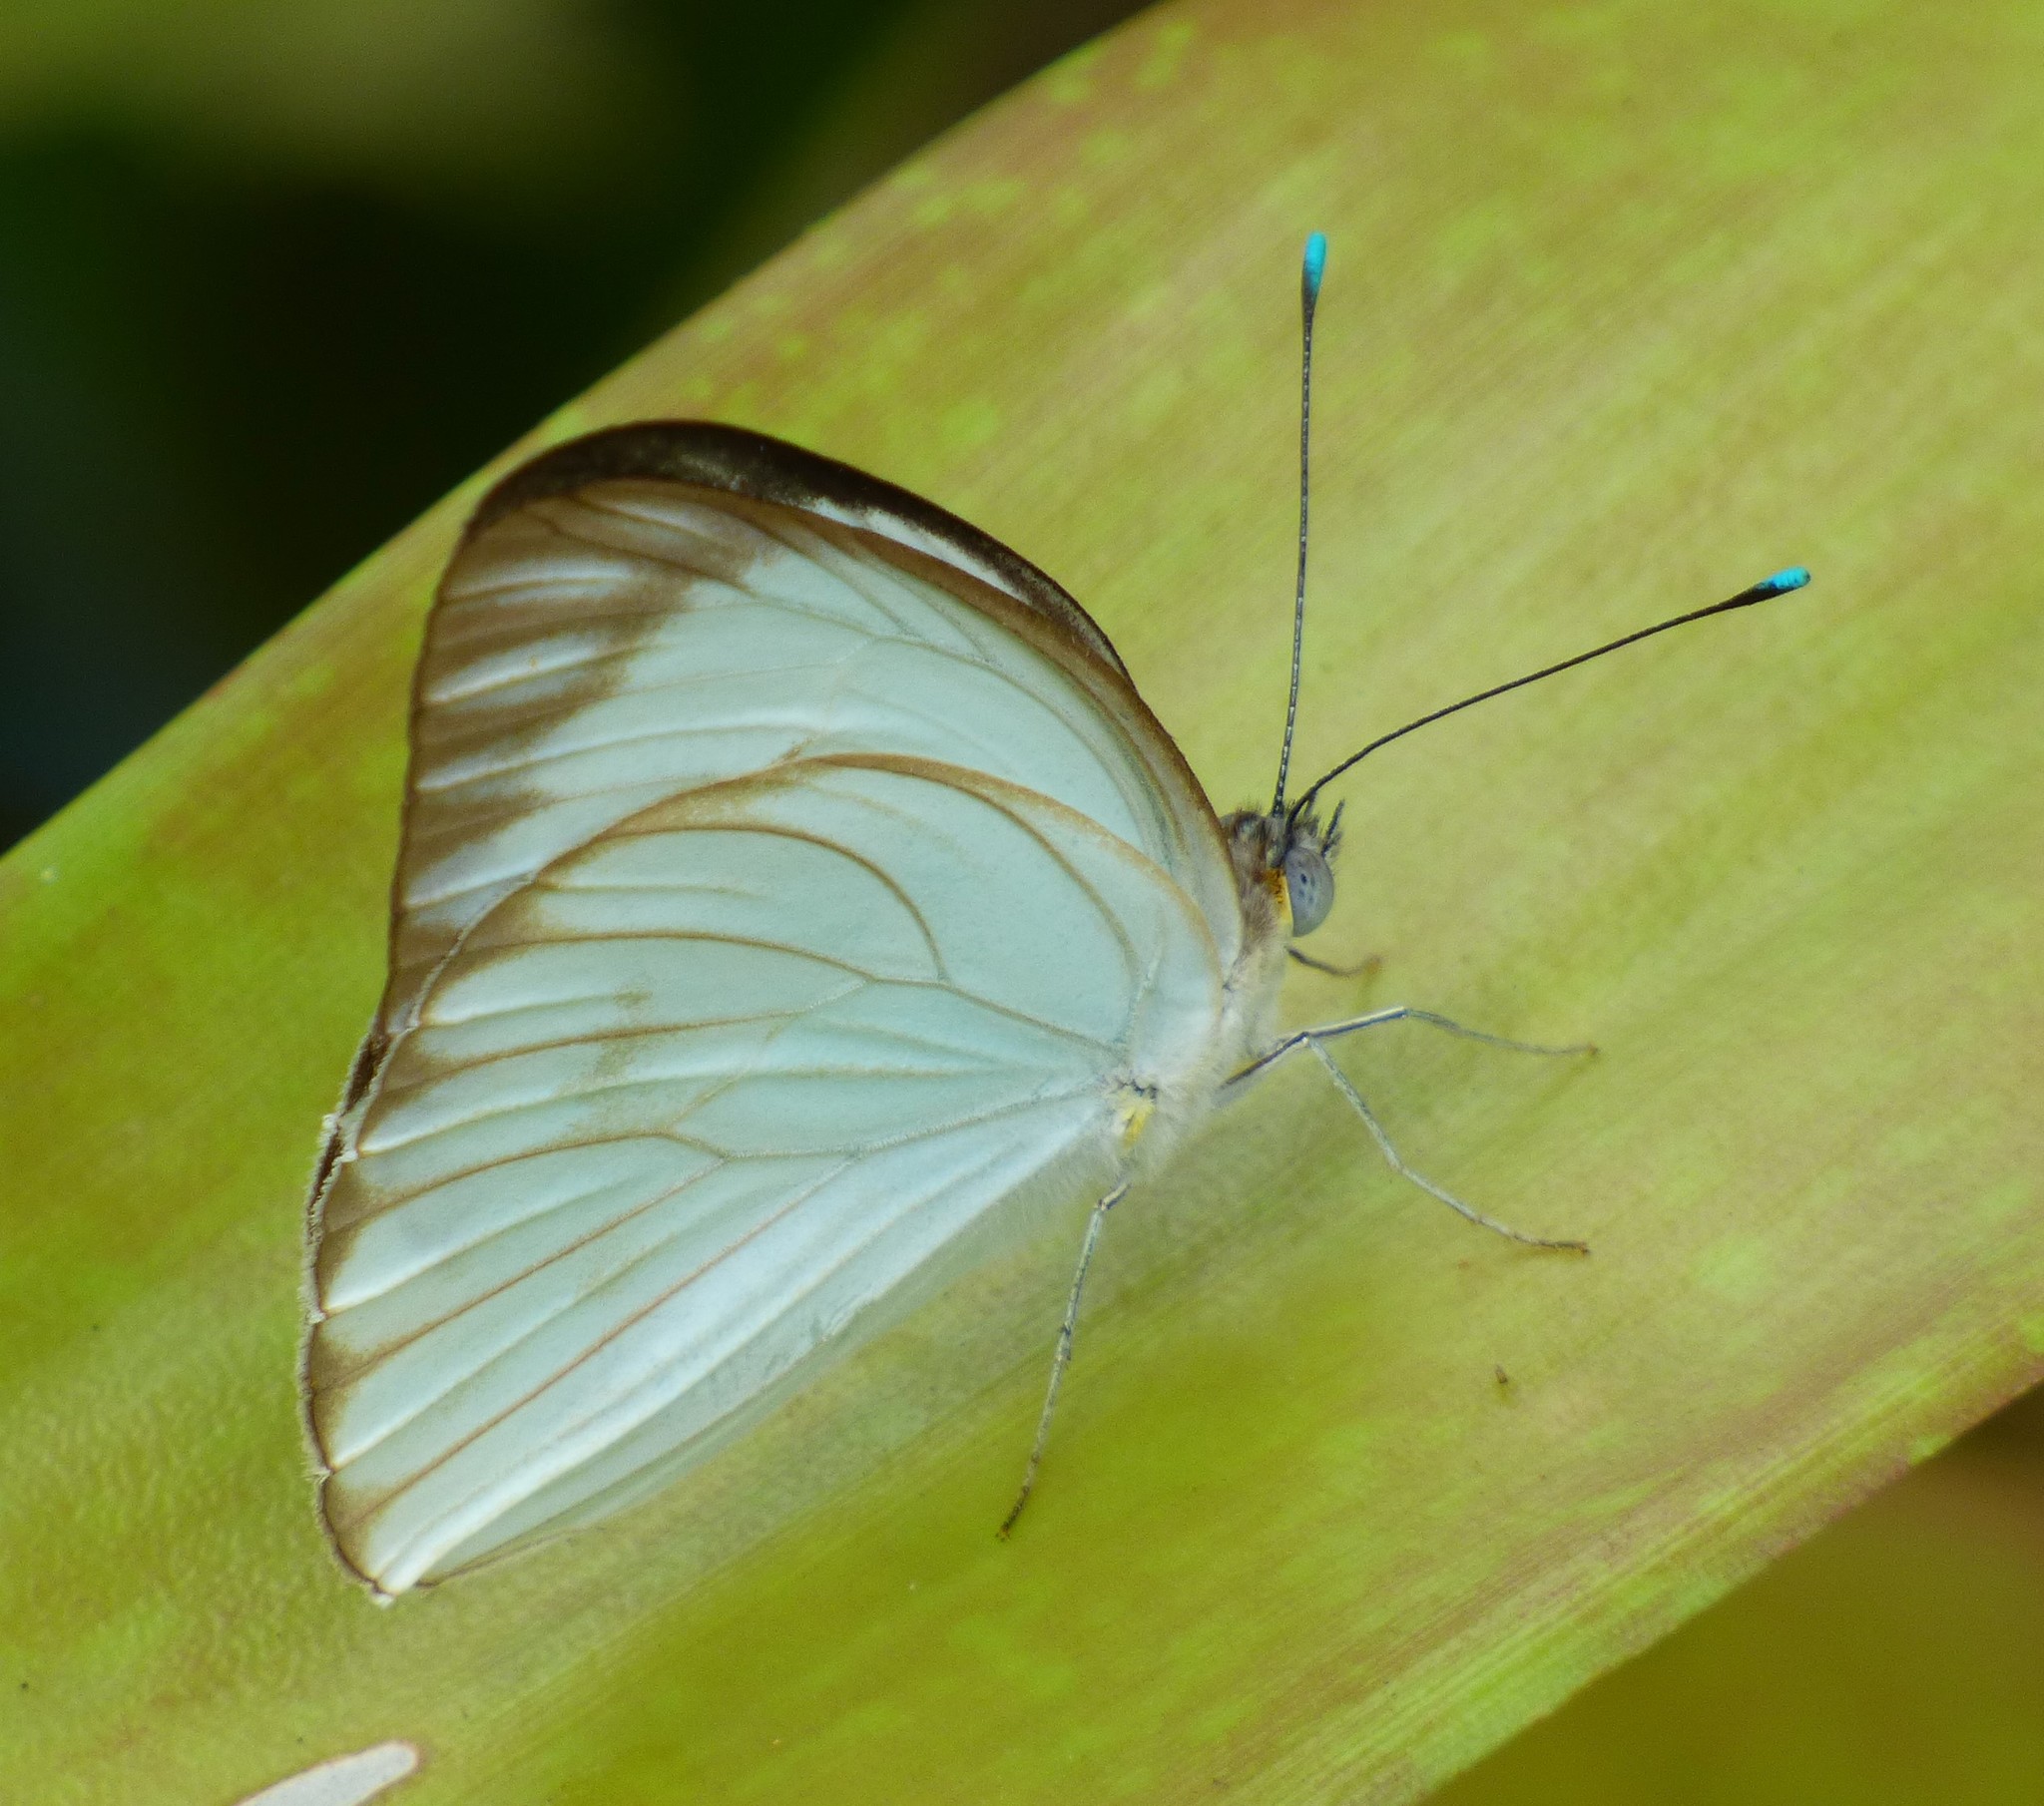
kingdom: Animalia
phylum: Arthropoda
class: Insecta
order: Lepidoptera
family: Pieridae
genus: Ascia
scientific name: Ascia monuste
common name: Great southern white
